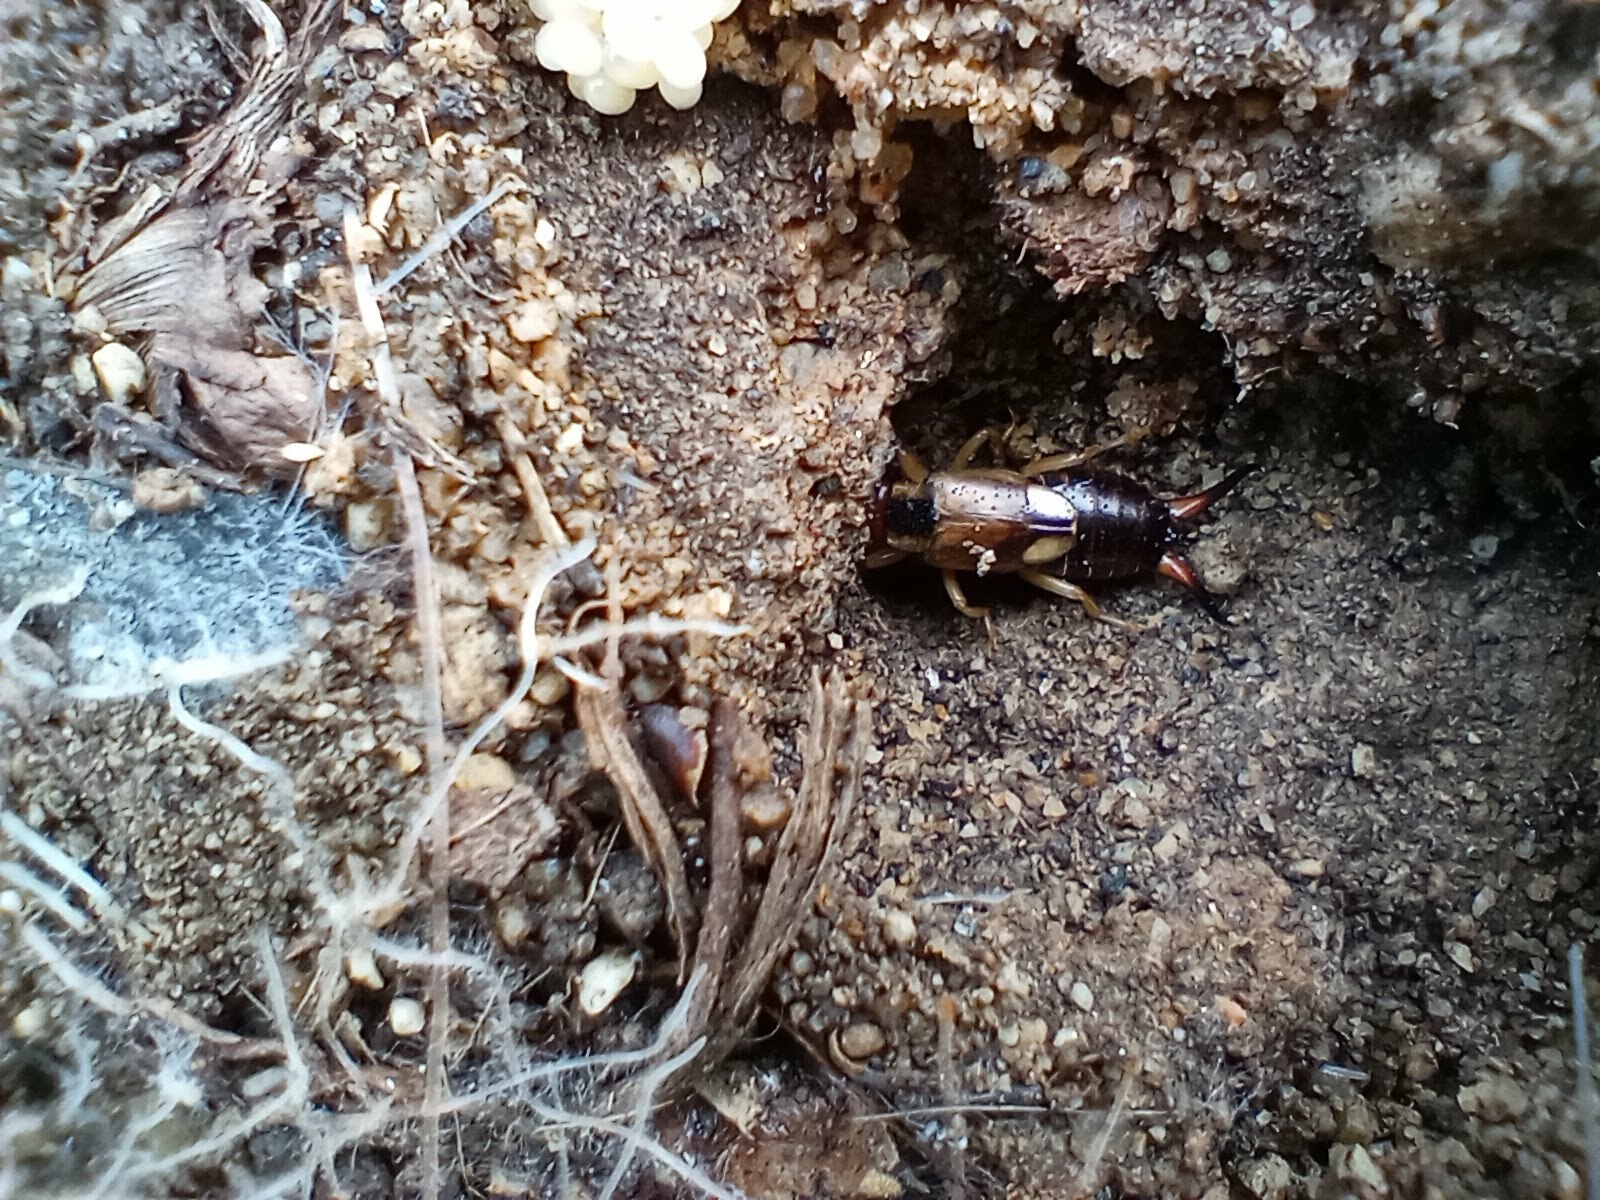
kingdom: Animalia
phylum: Arthropoda
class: Insecta
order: Dermaptera
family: Forficulidae
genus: Forficula
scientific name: Forficula
